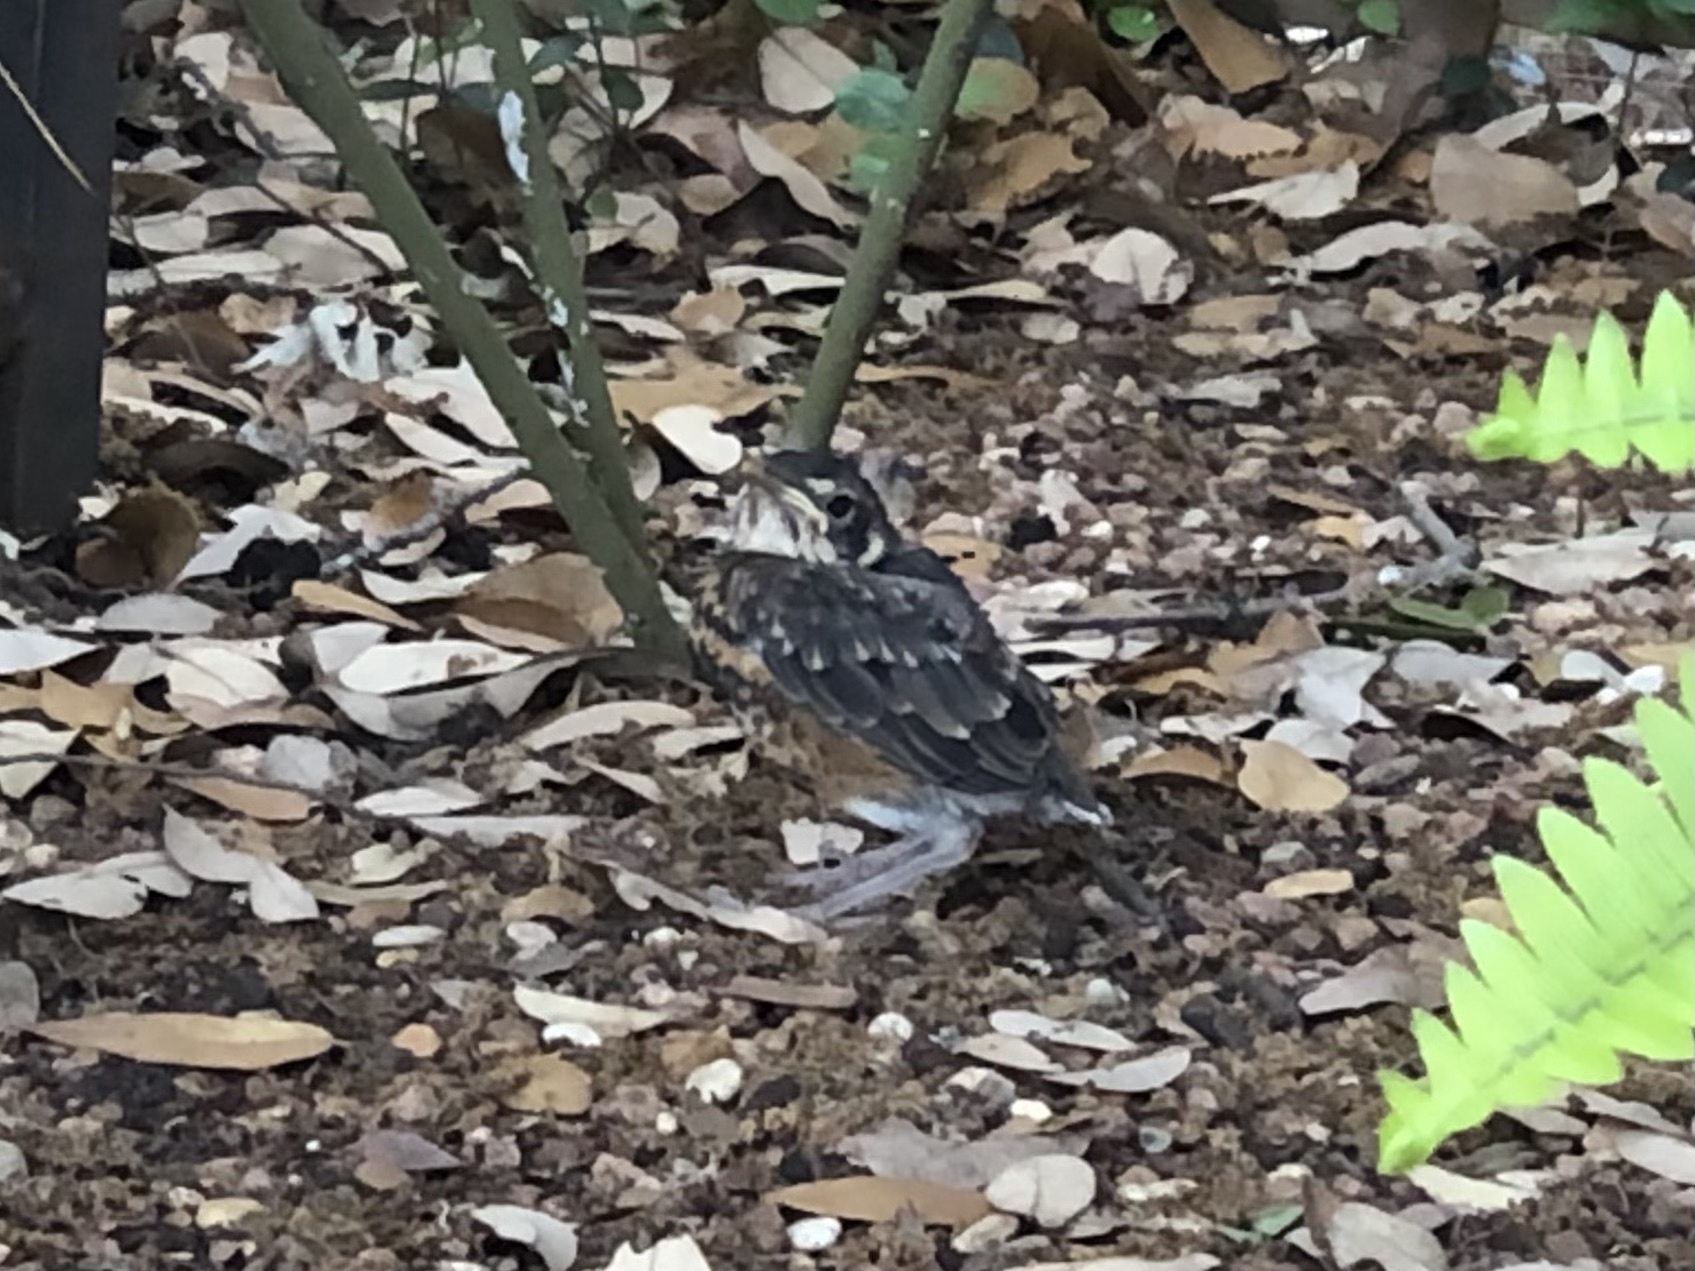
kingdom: Animalia
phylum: Chordata
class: Aves
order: Passeriformes
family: Turdidae
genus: Turdus
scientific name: Turdus migratorius
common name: American robin
